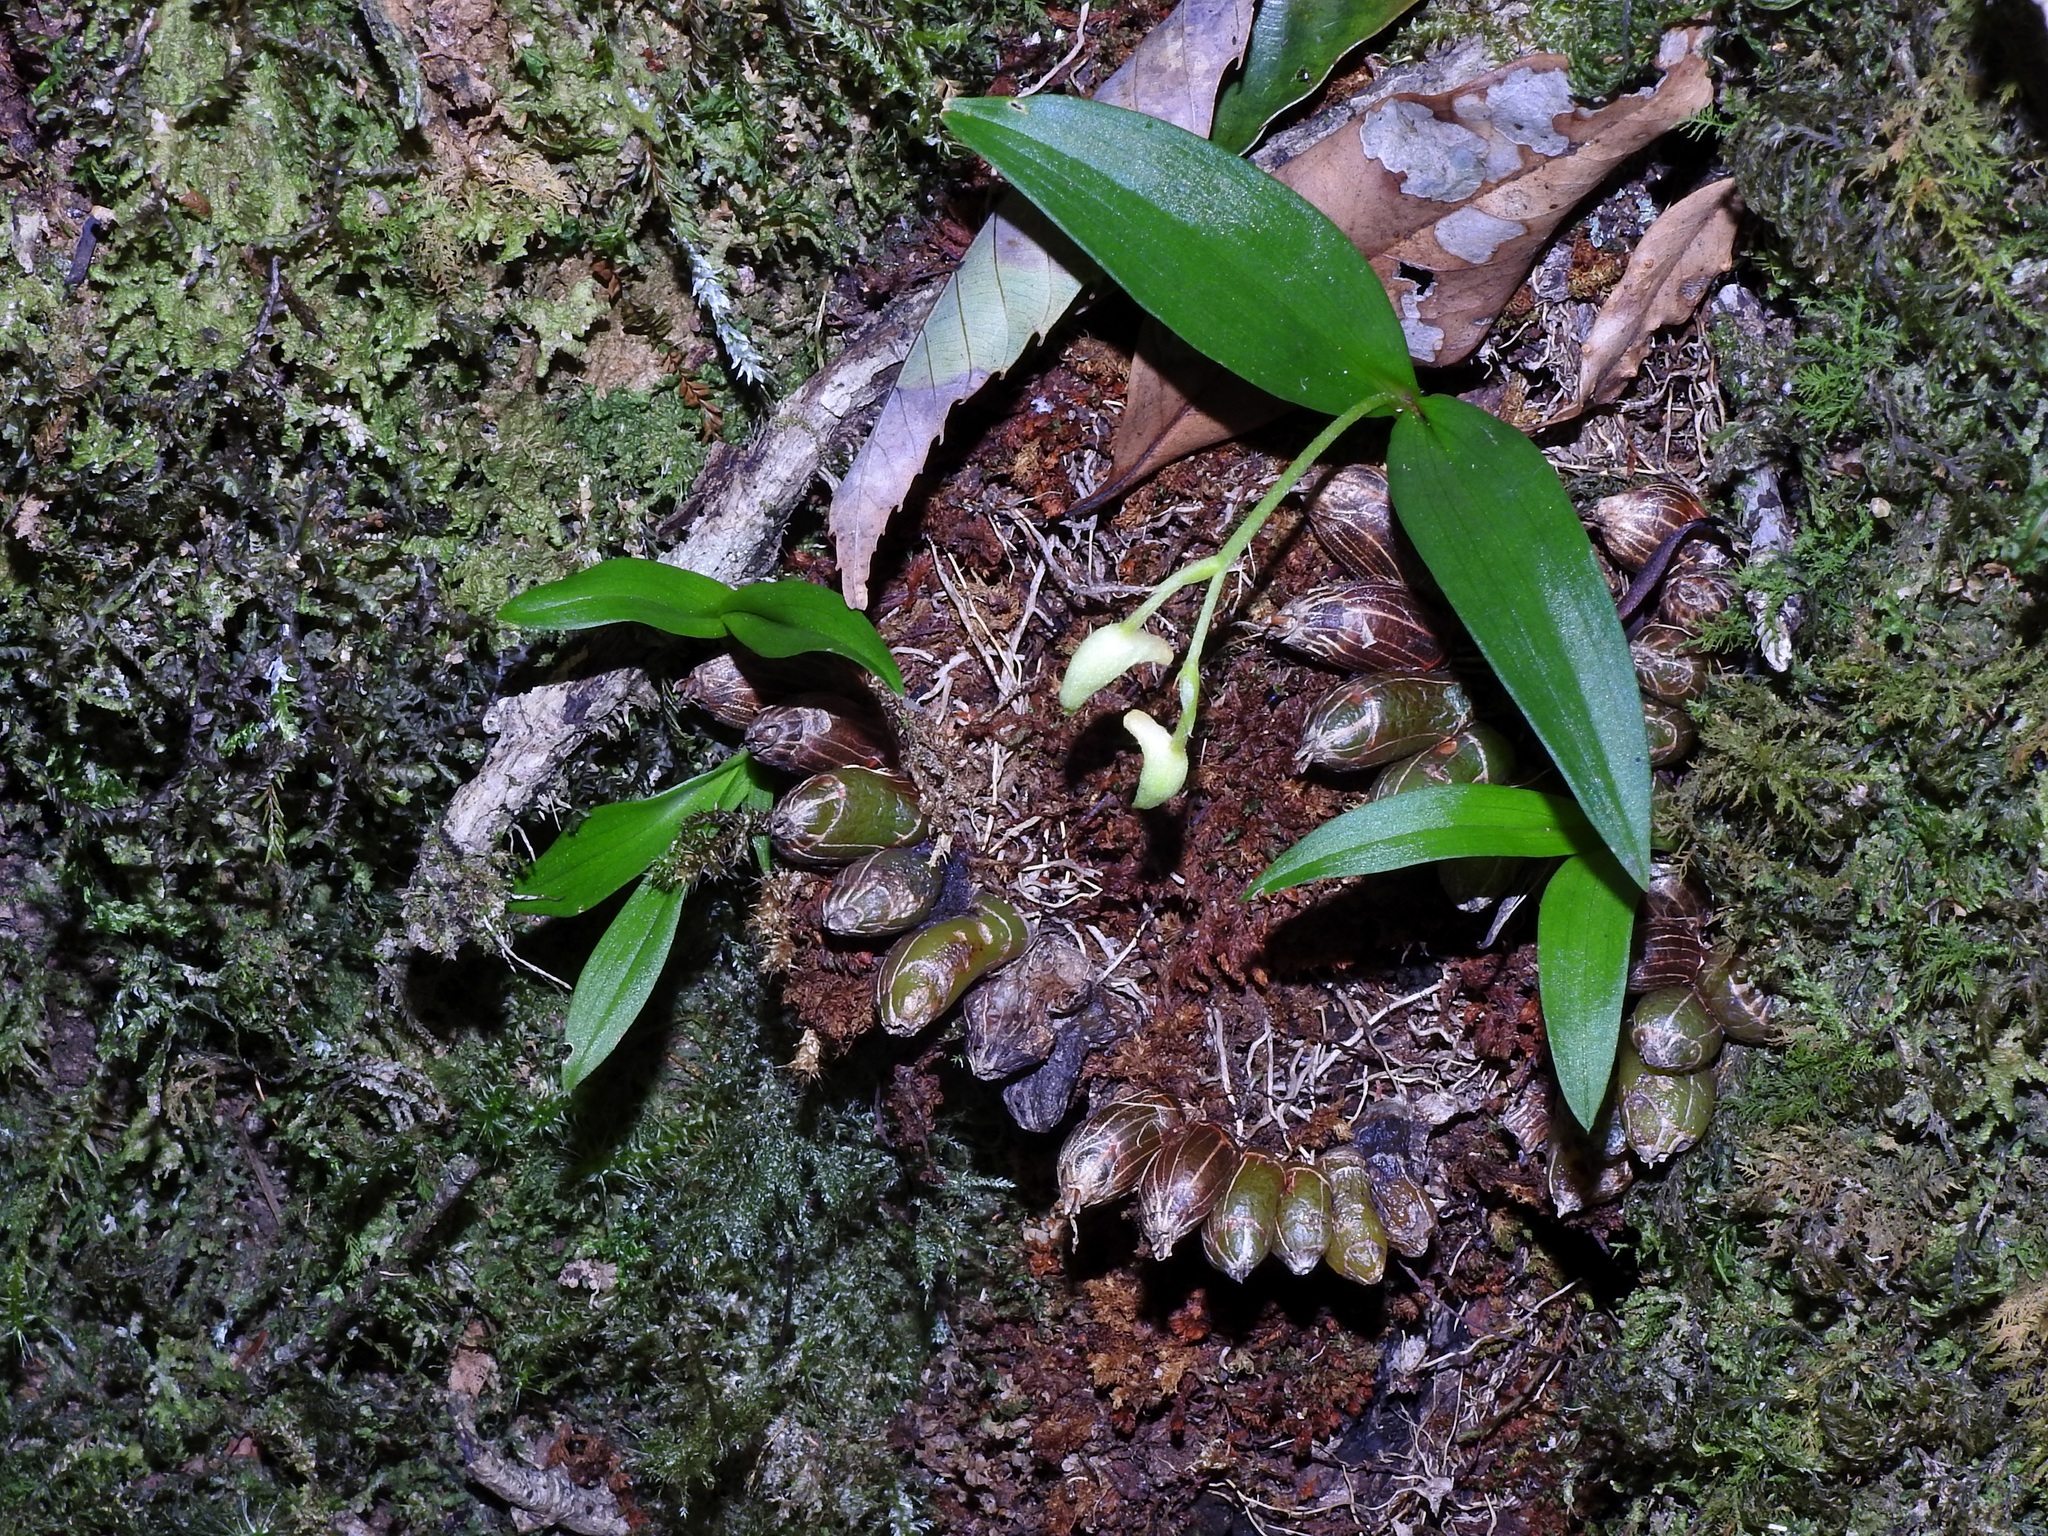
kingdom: Plantae
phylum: Tracheophyta
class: Liliopsida
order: Asparagales
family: Orchidaceae
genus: Pinalia
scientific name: Pinalia japonica
